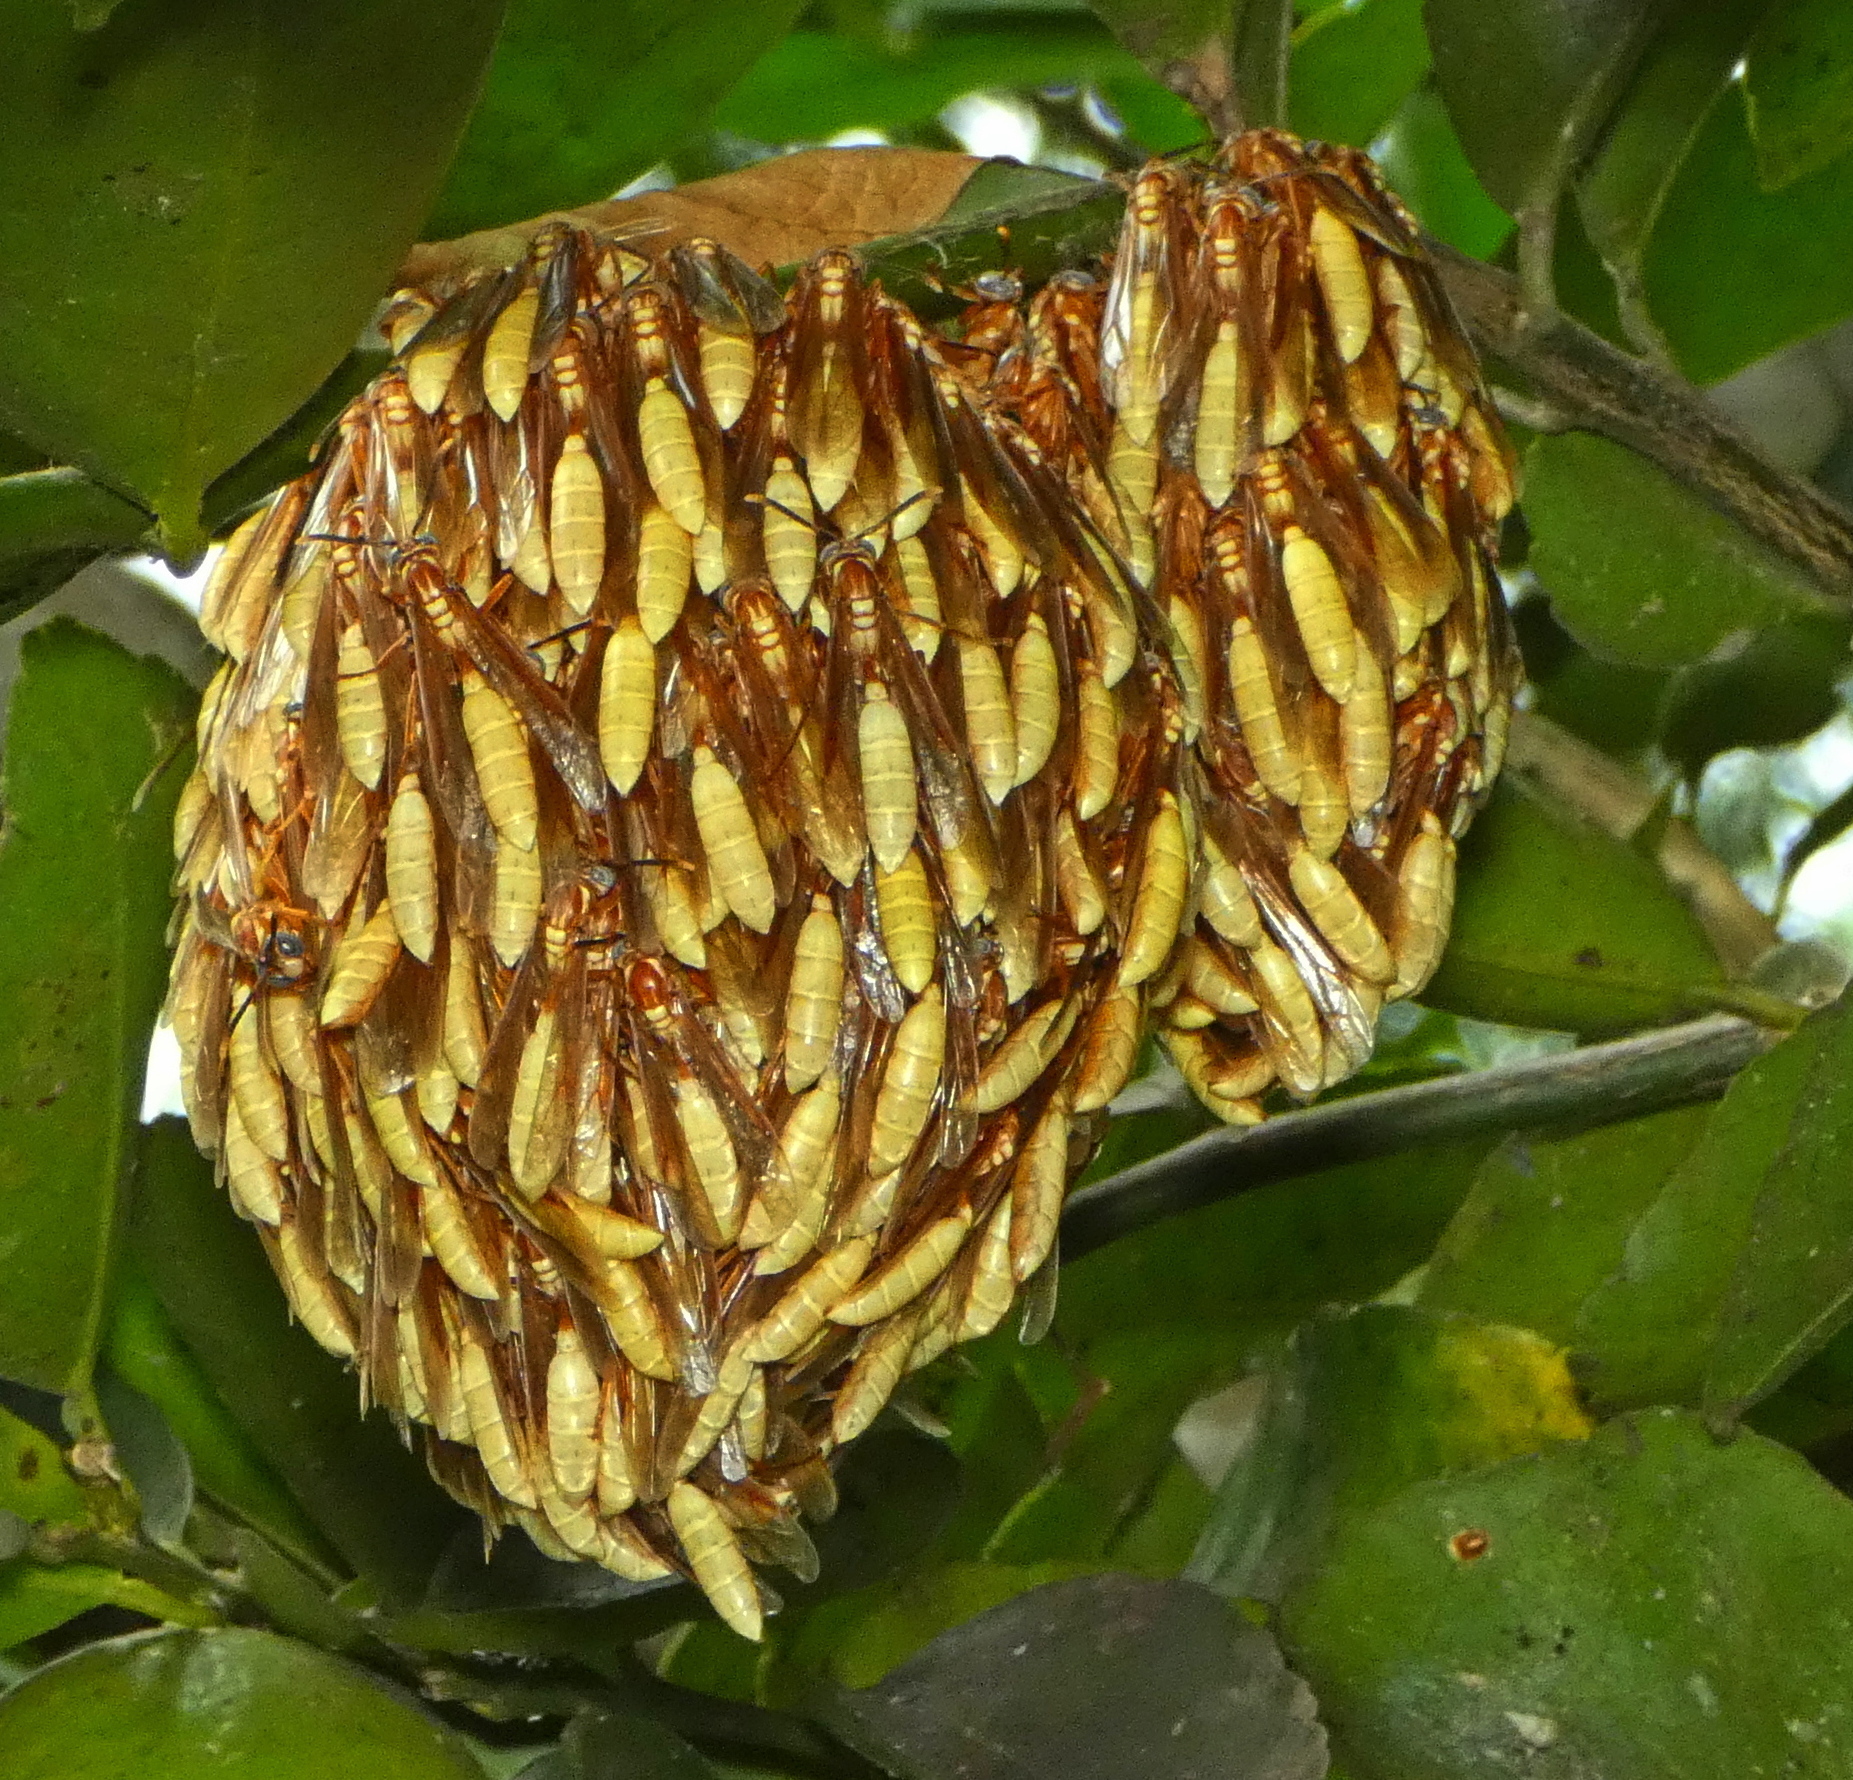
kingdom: Animalia
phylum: Arthropoda
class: Insecta
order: Hymenoptera
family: Vespidae
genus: Apoica
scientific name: Apoica flavissima
